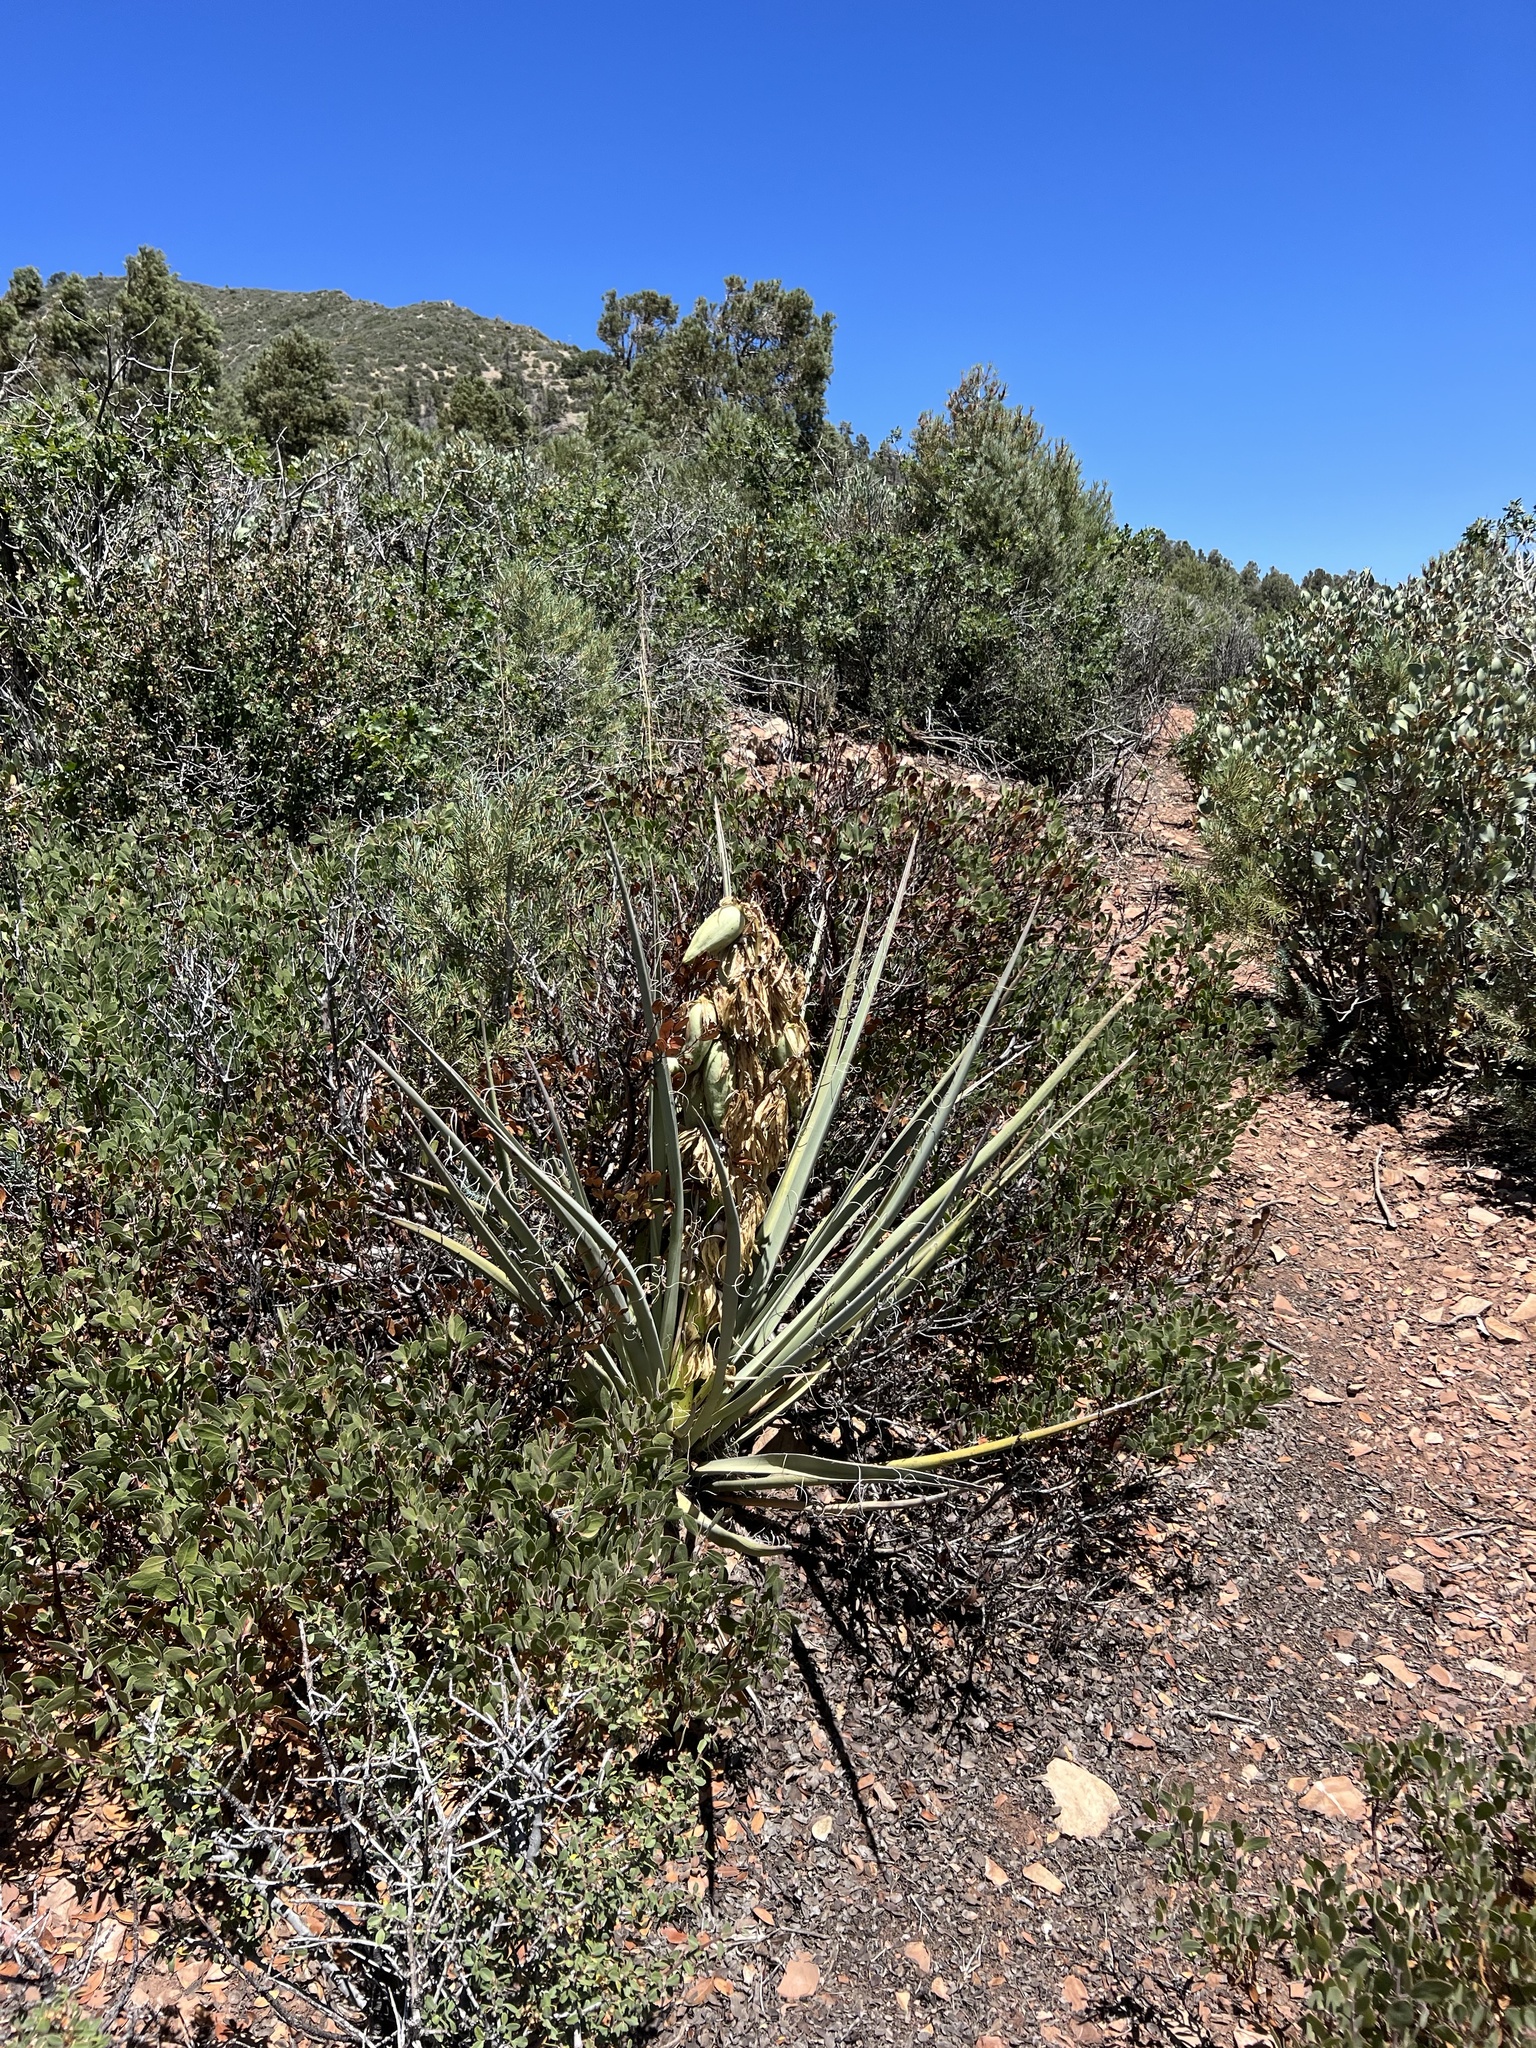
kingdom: Plantae
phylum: Tracheophyta
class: Liliopsida
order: Asparagales
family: Asparagaceae
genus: Yucca
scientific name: Yucca baccata
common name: Banana yucca
